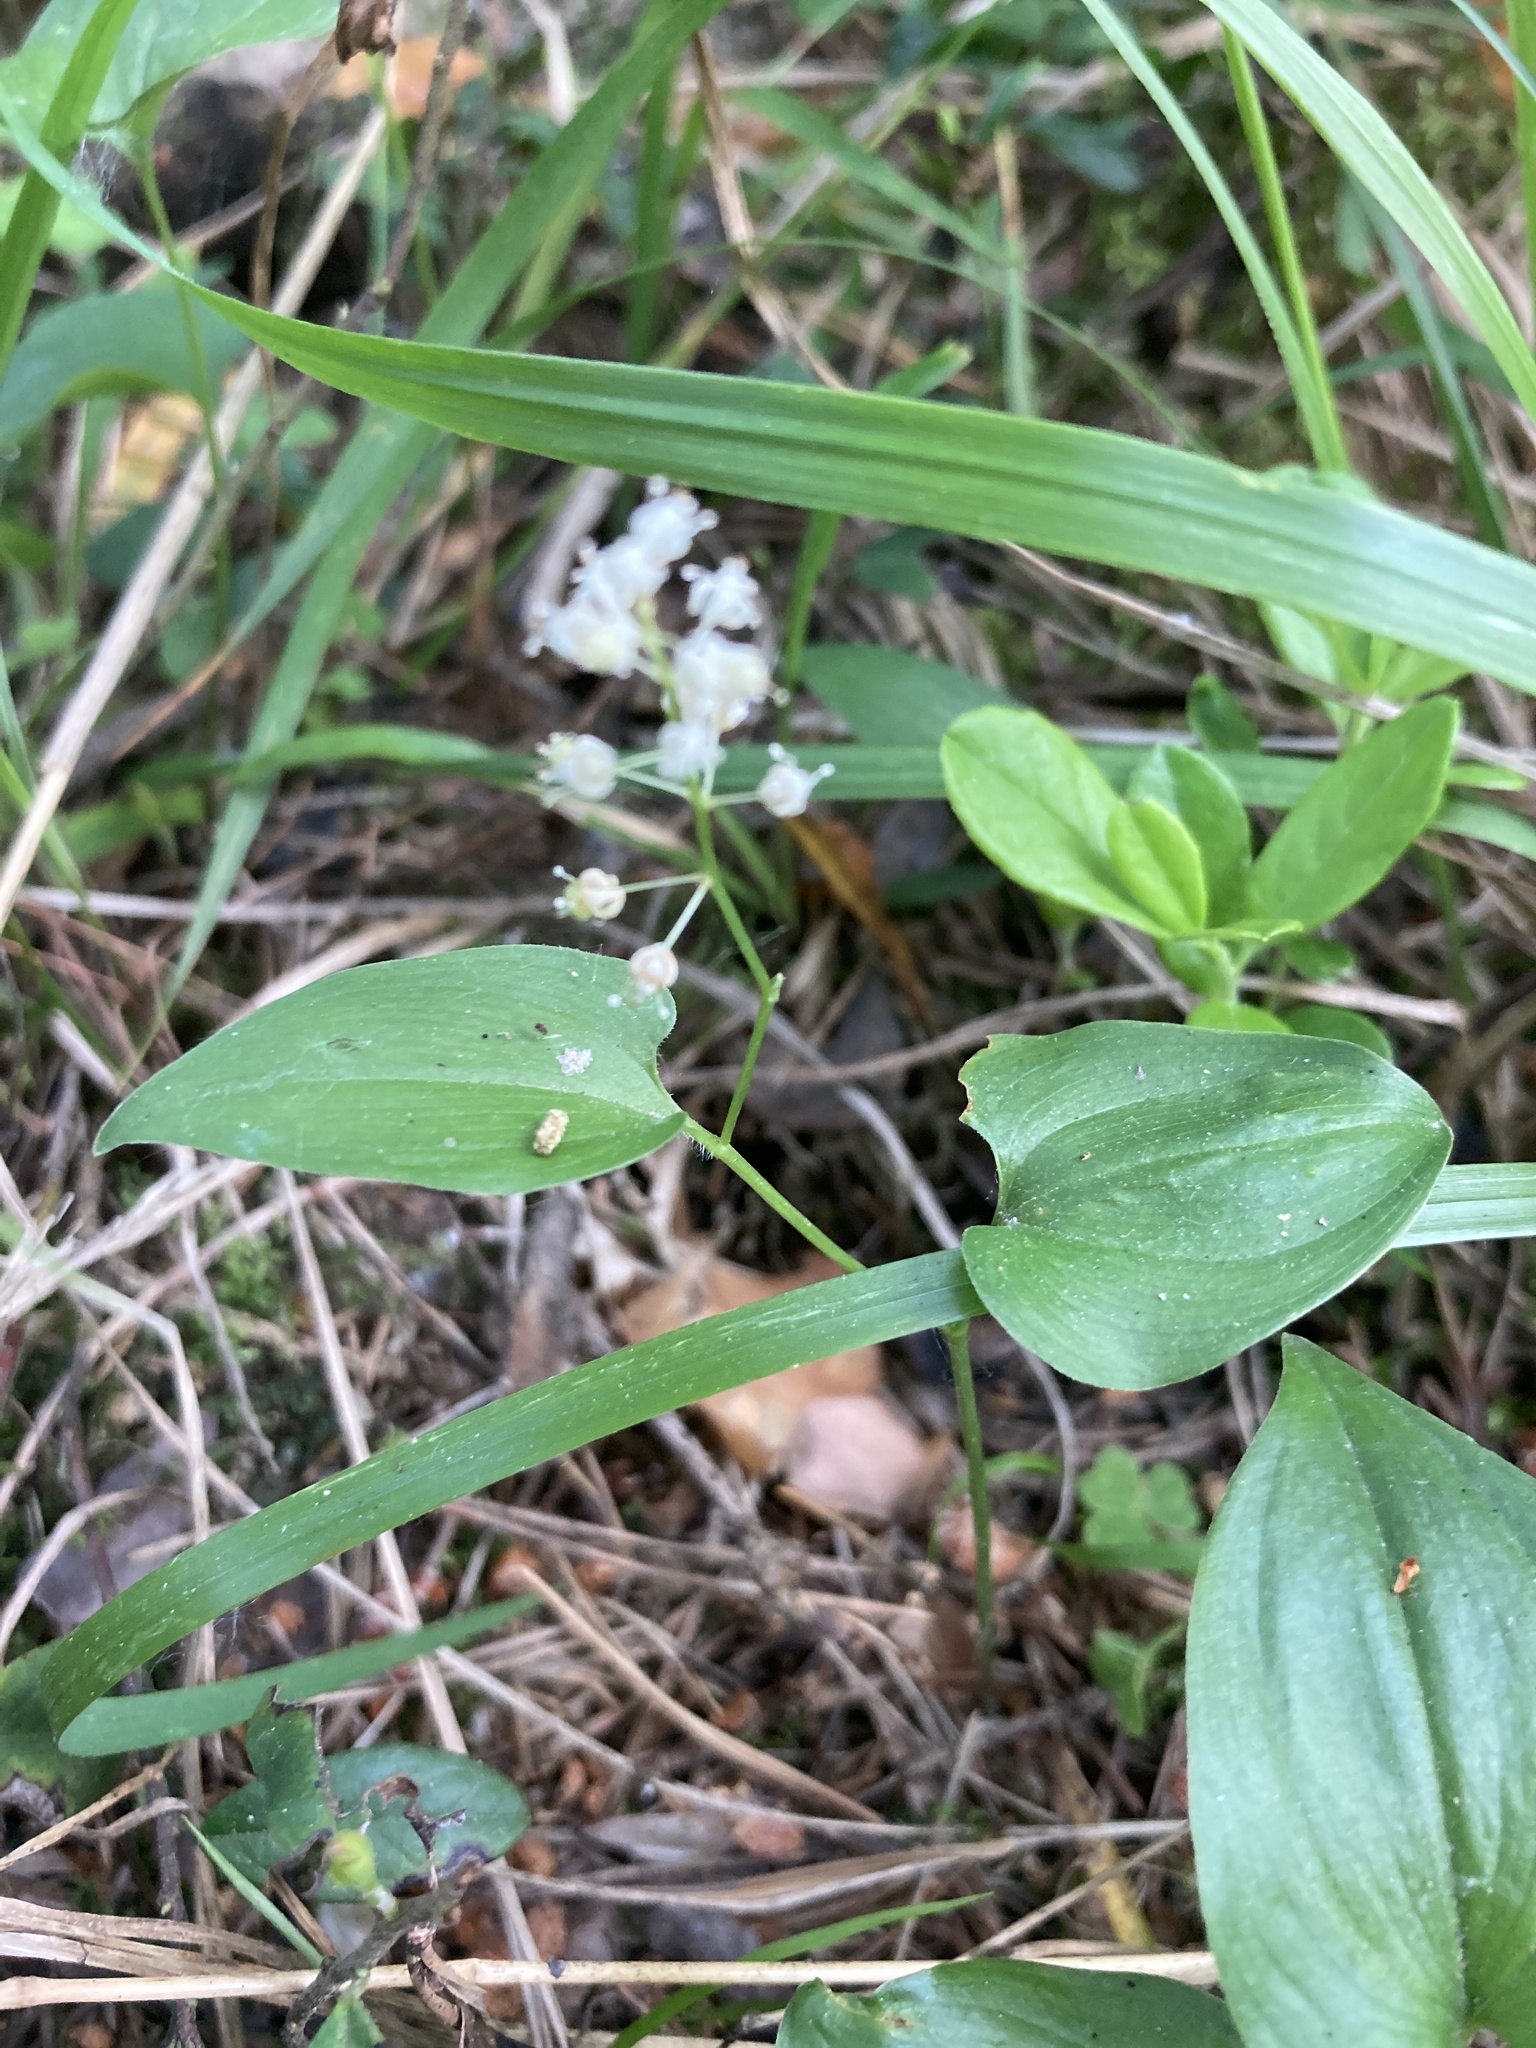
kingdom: Plantae
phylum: Tracheophyta
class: Liliopsida
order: Asparagales
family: Asparagaceae
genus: Maianthemum
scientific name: Maianthemum bifolium
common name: May lily
